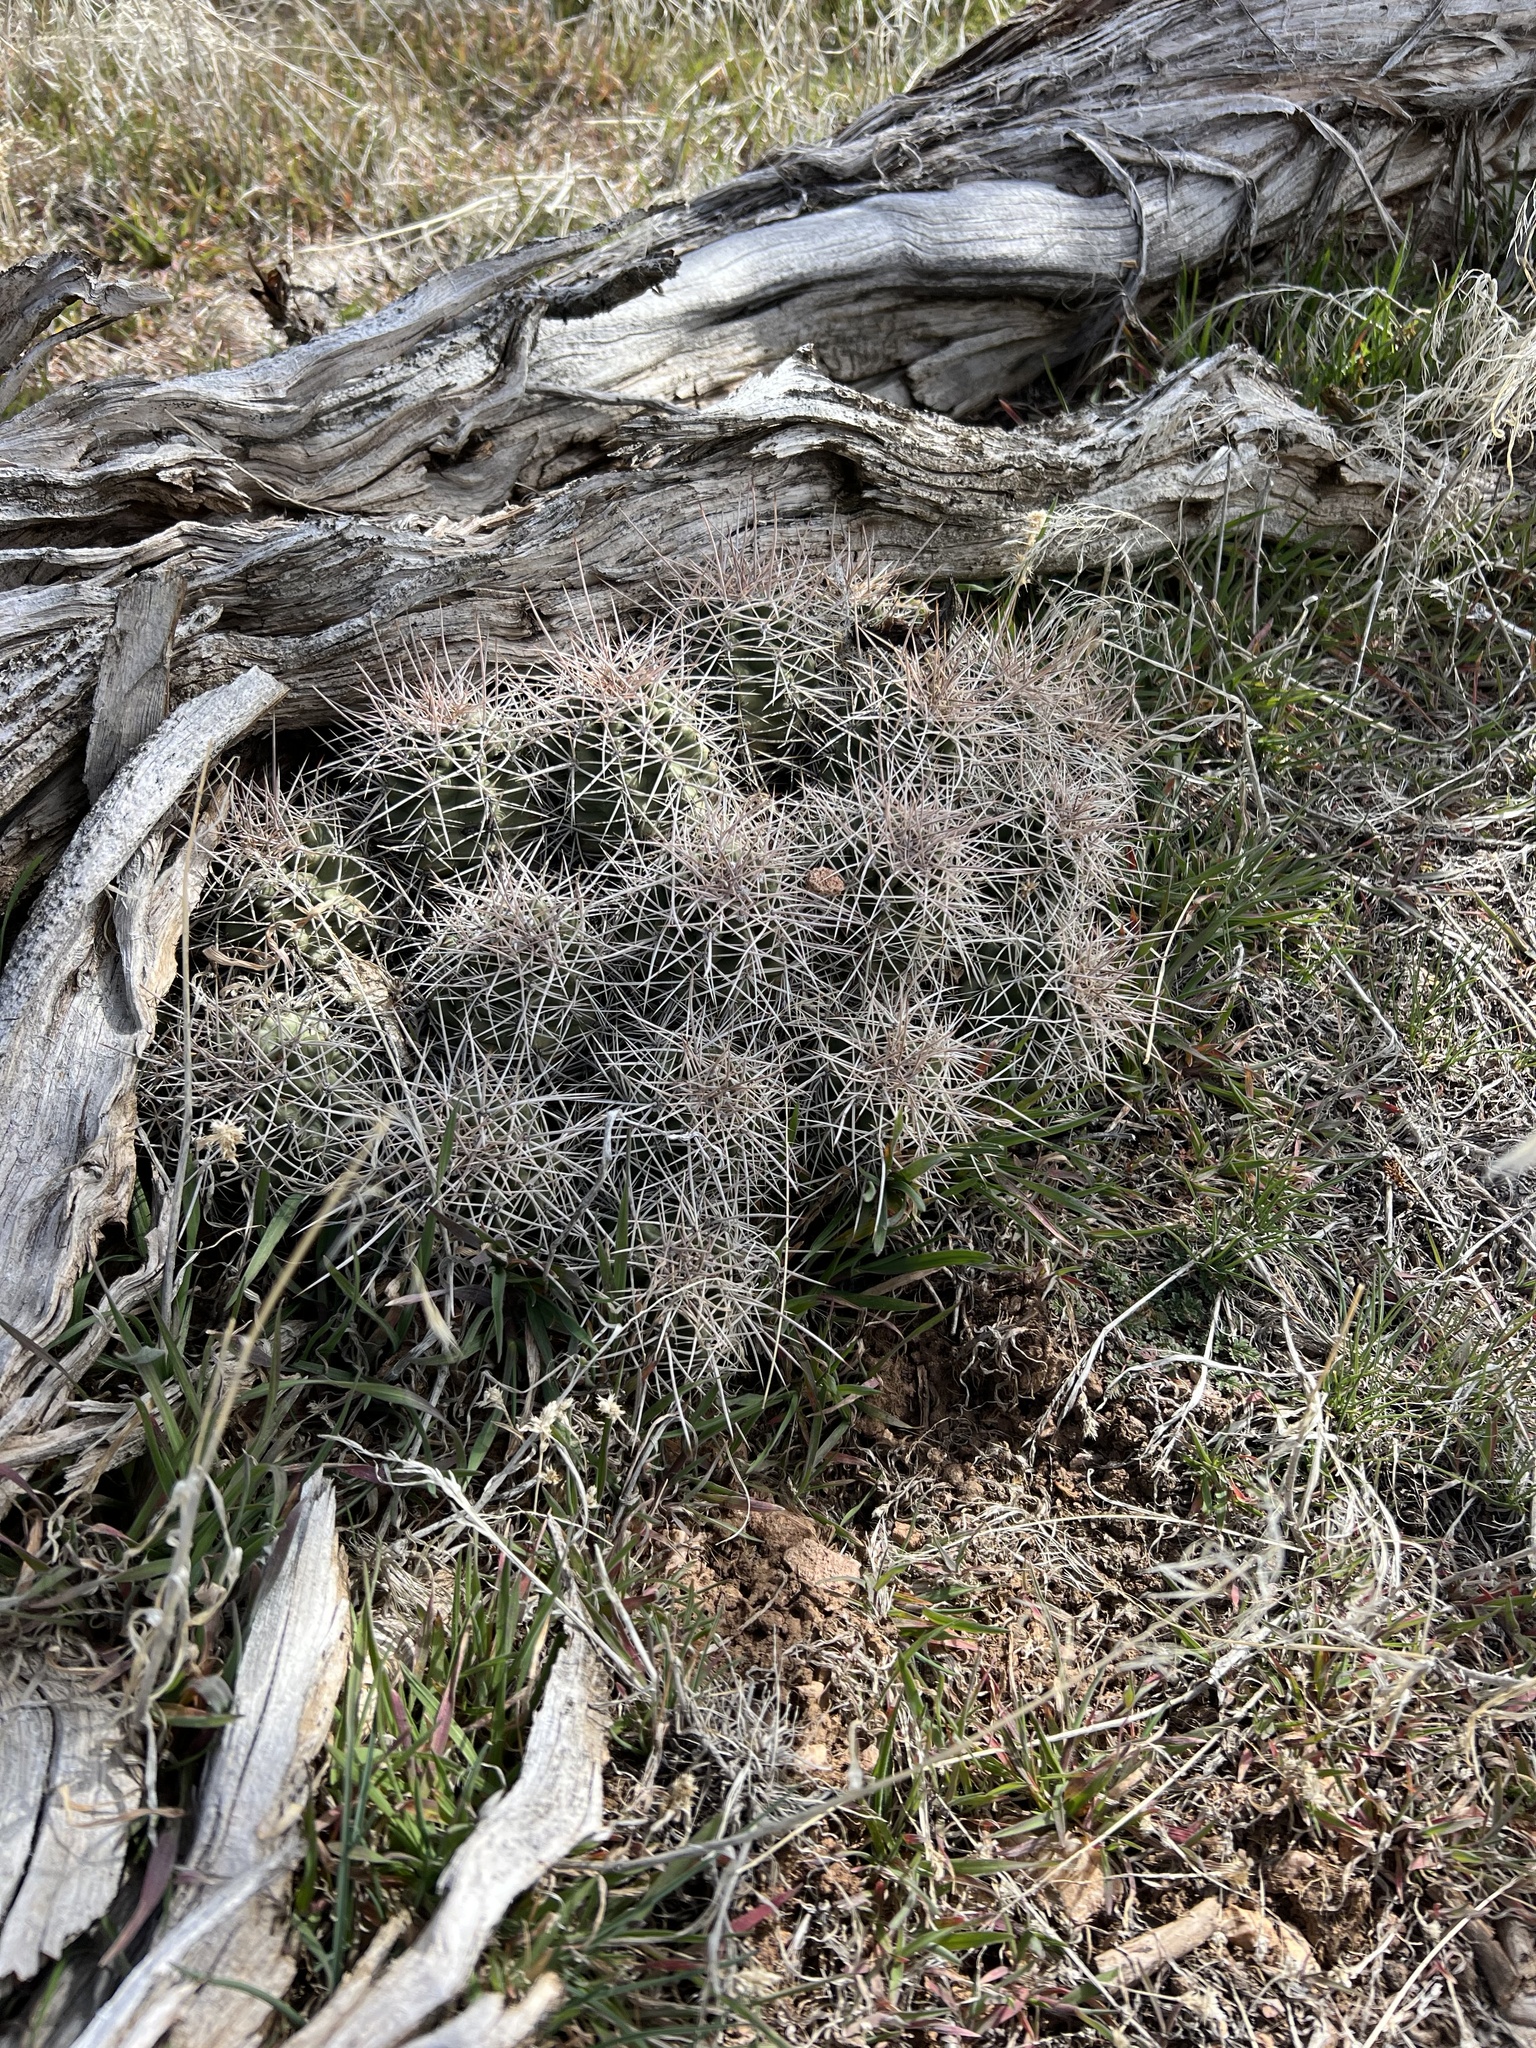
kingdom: Plantae
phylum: Tracheophyta
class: Magnoliopsida
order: Caryophyllales
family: Cactaceae
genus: Echinocereus
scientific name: Echinocereus triglochidiatus
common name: Claretcup hedgehog
